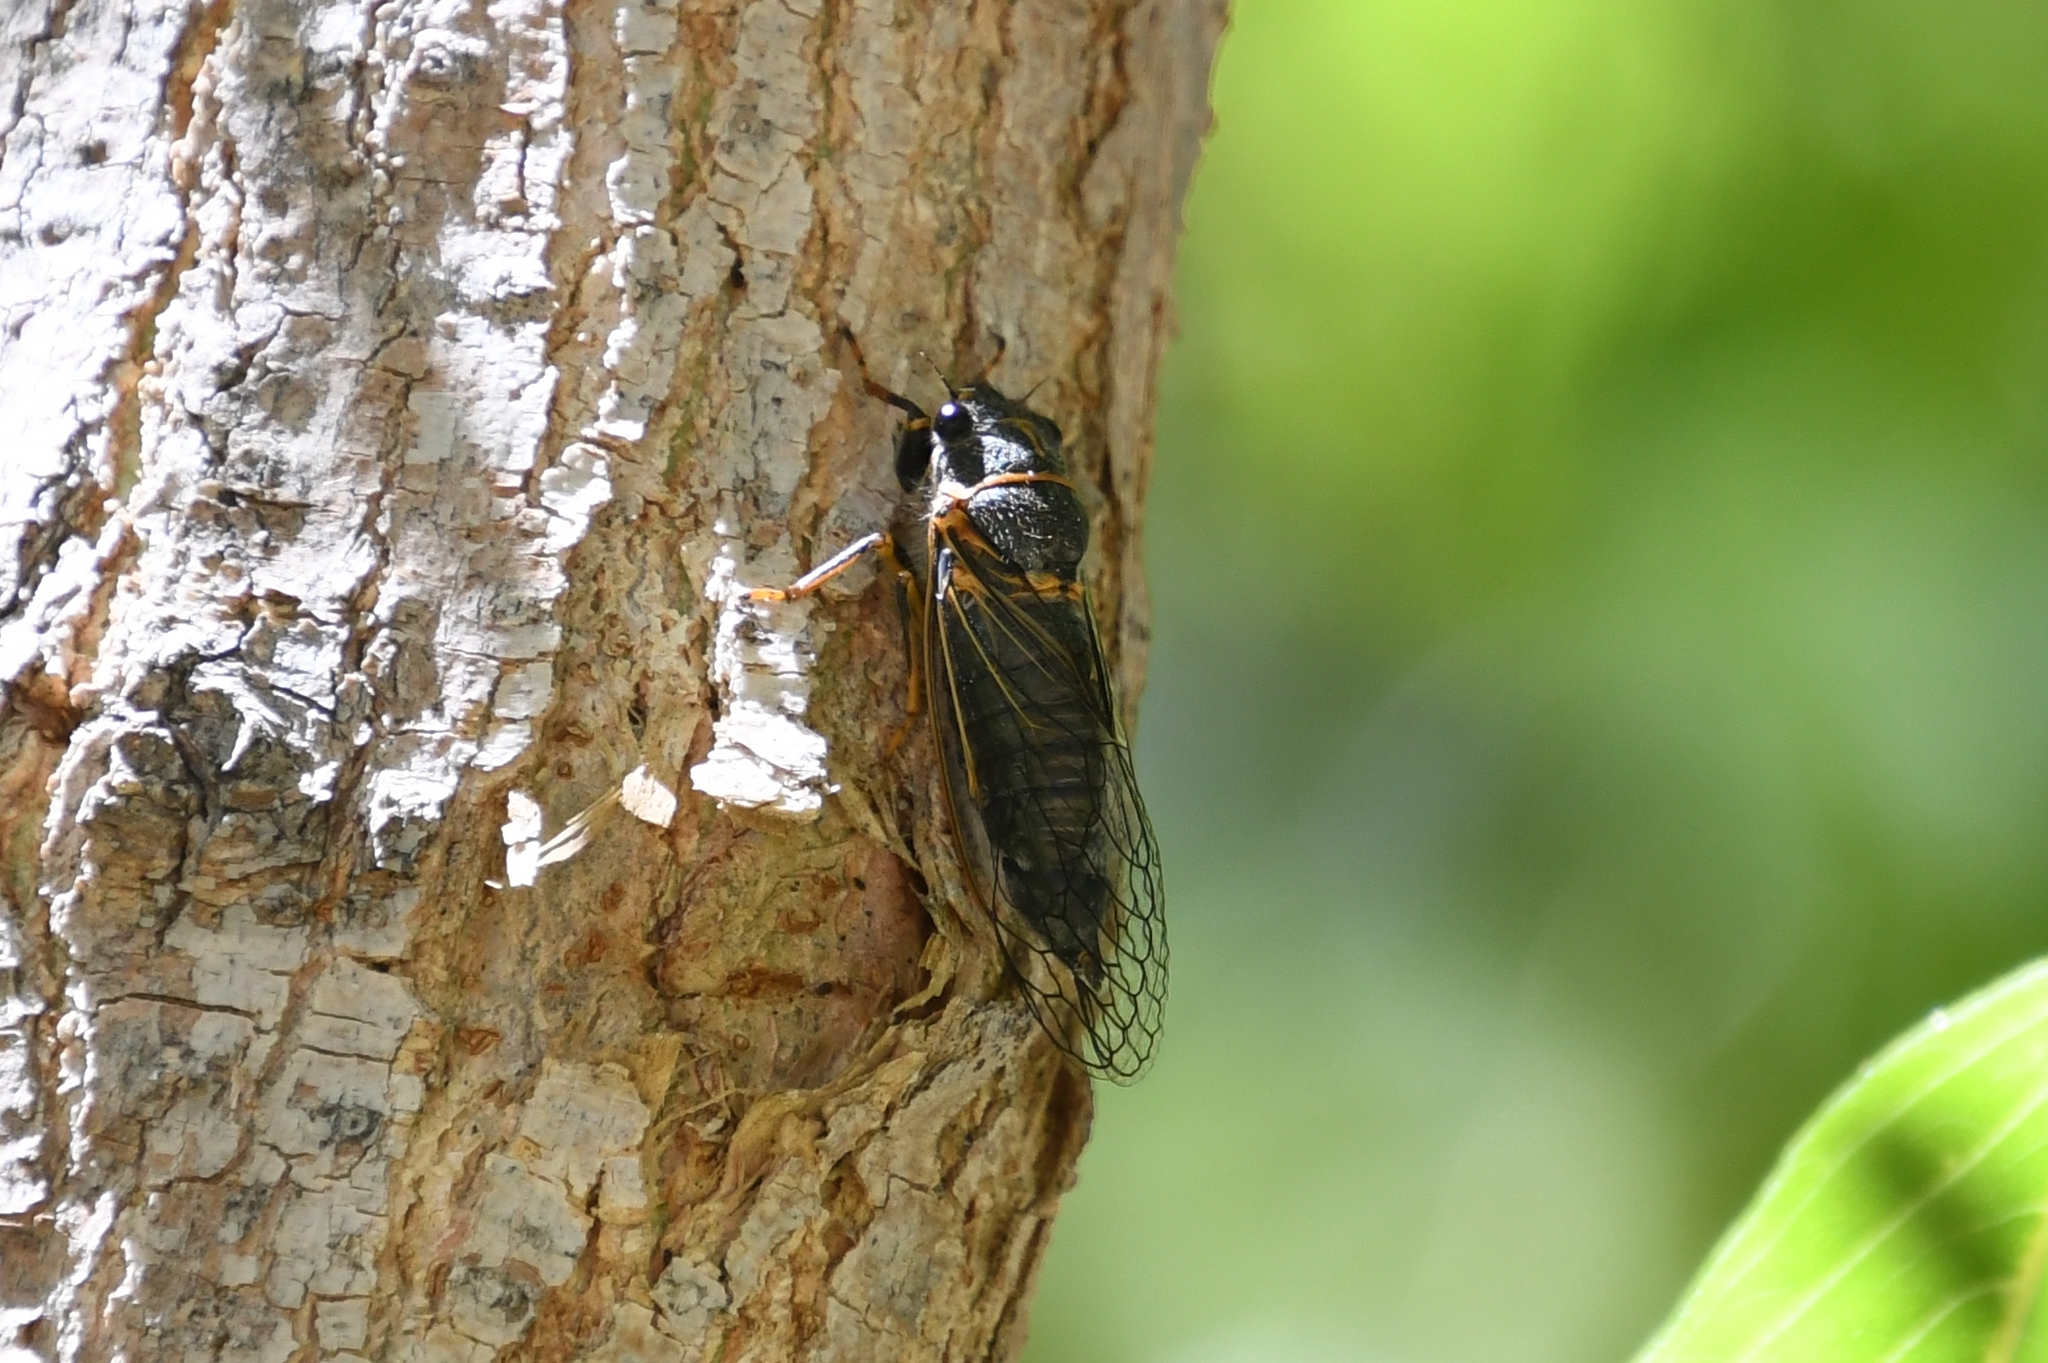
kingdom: Animalia
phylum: Arthropoda
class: Insecta
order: Hemiptera
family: Cicadidae
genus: Platypedia
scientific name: Platypedia putnami
